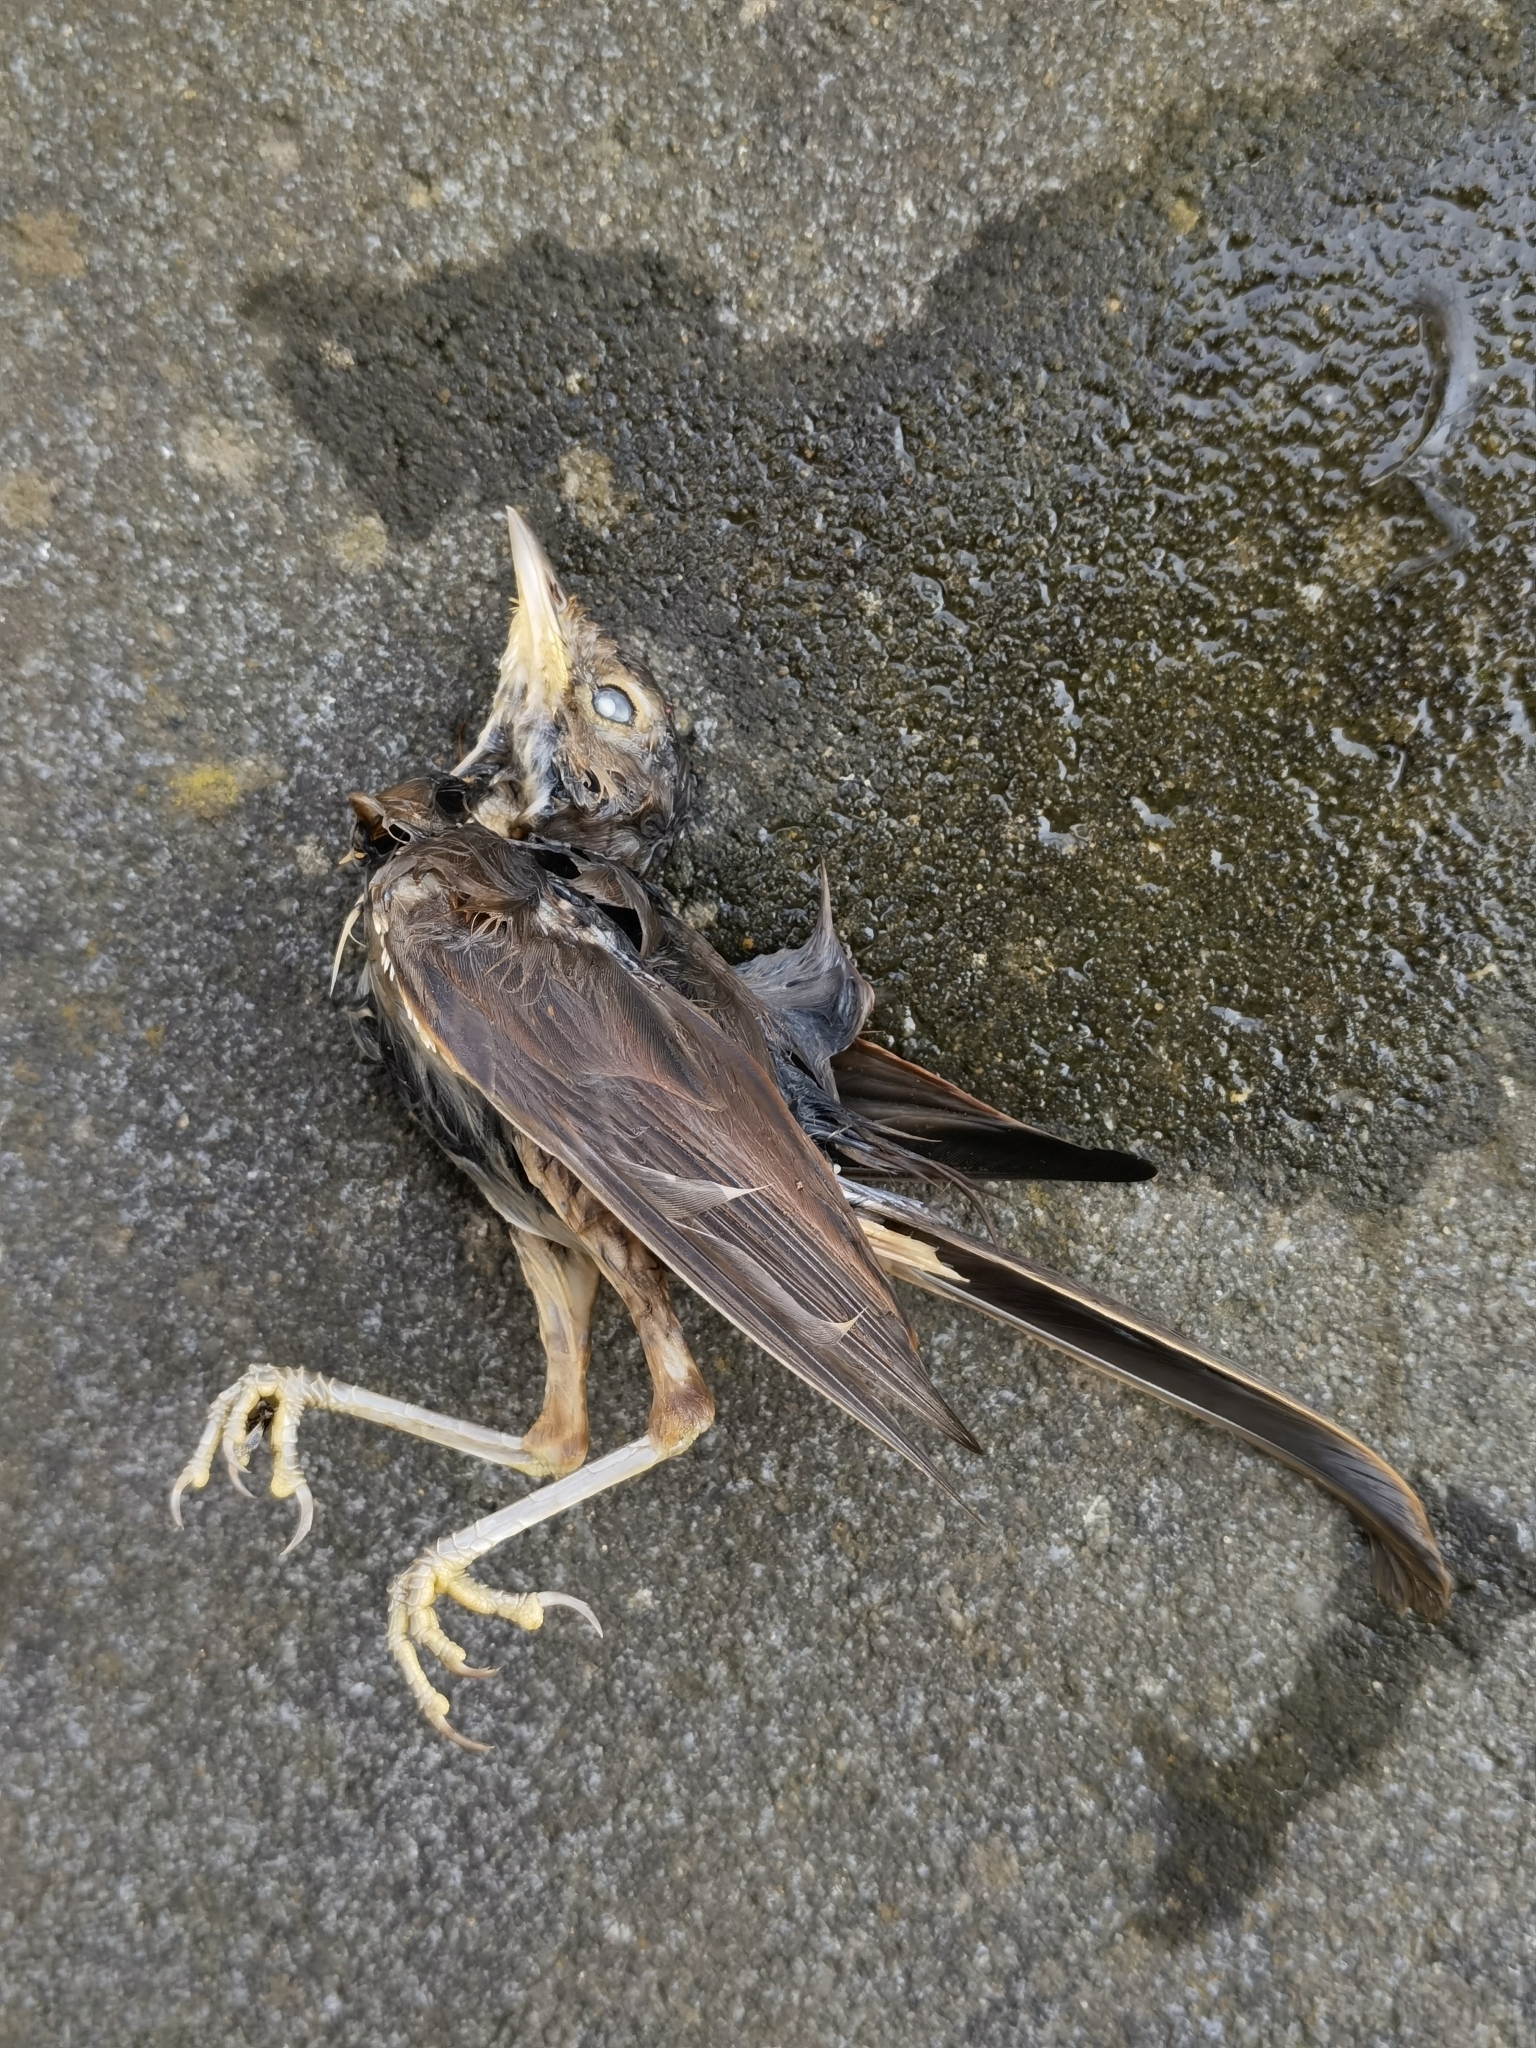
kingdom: Animalia
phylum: Chordata
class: Aves
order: Passeriformes
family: Muscicapidae
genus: Luscinia
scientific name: Luscinia megarhynchos
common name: Common nightingale
